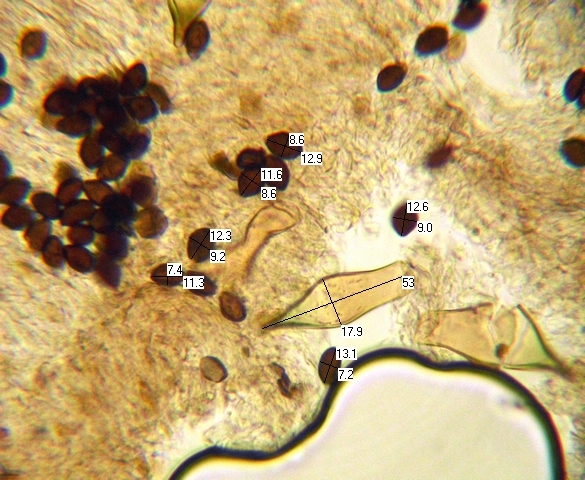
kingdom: Fungi
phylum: Basidiomycota
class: Agaricomycetes
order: Agaricales
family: Bolbitiaceae
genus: Panaeolus
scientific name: Panaeolus bisporus
